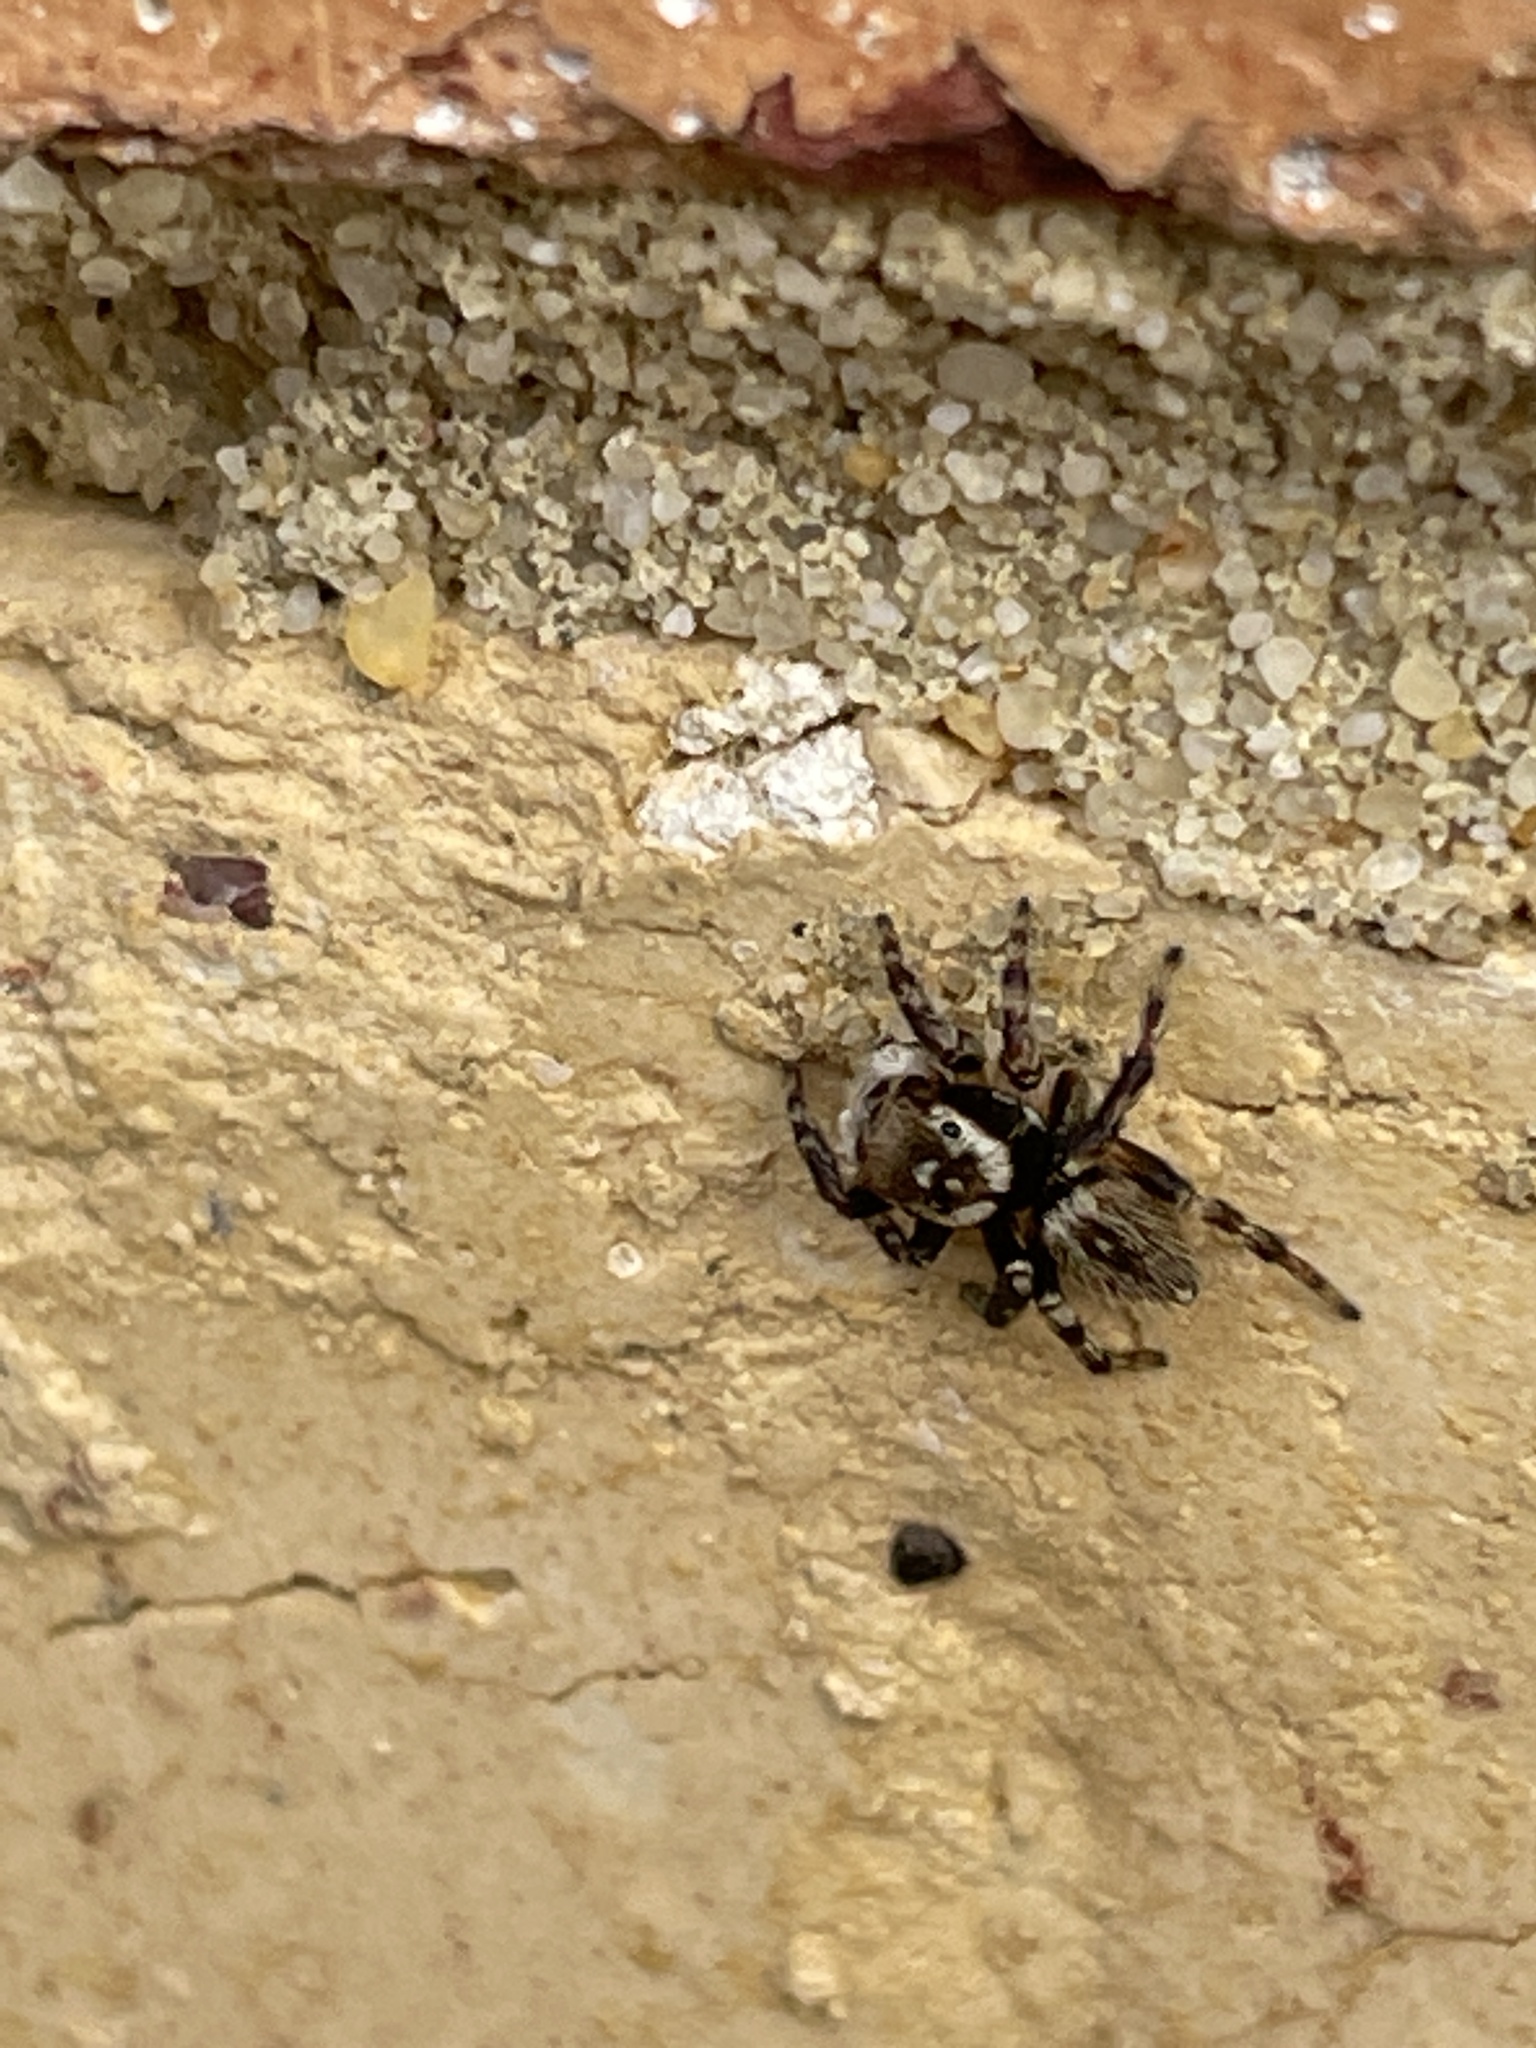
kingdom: Animalia
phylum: Arthropoda
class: Arachnida
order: Araneae
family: Salticidae
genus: Maratus
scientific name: Maratus griseus
